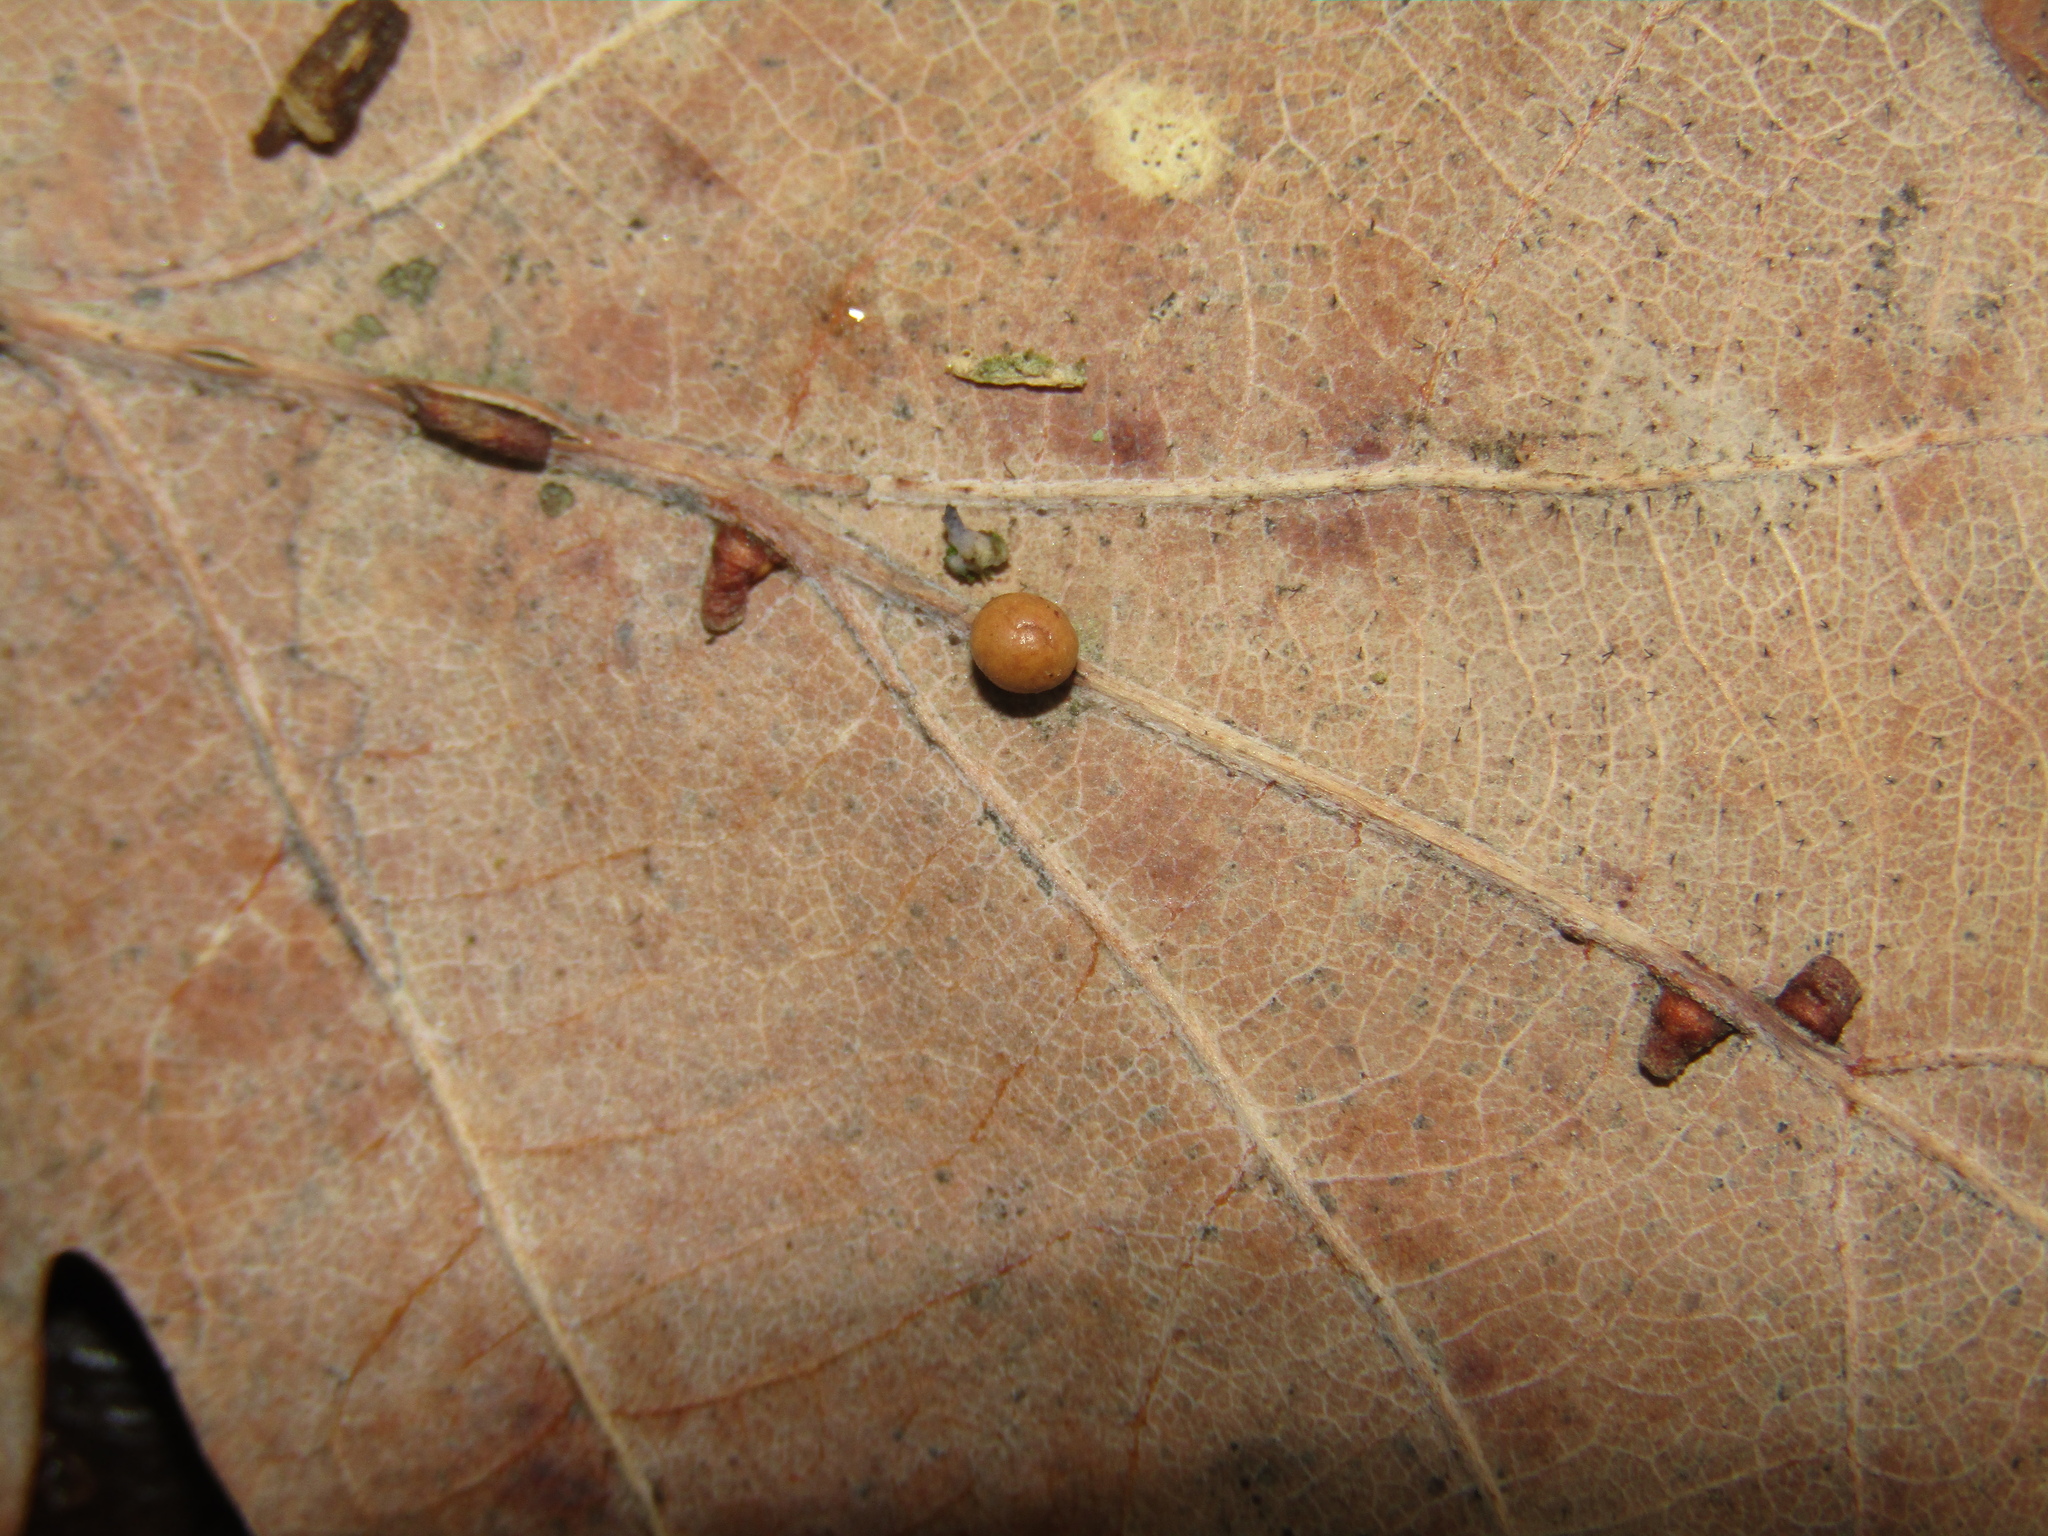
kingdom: Animalia
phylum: Arthropoda
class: Insecta
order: Hymenoptera
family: Cynipidae
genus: Neuroterus
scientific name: Neuroterus anthracinus
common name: Oyster gall
